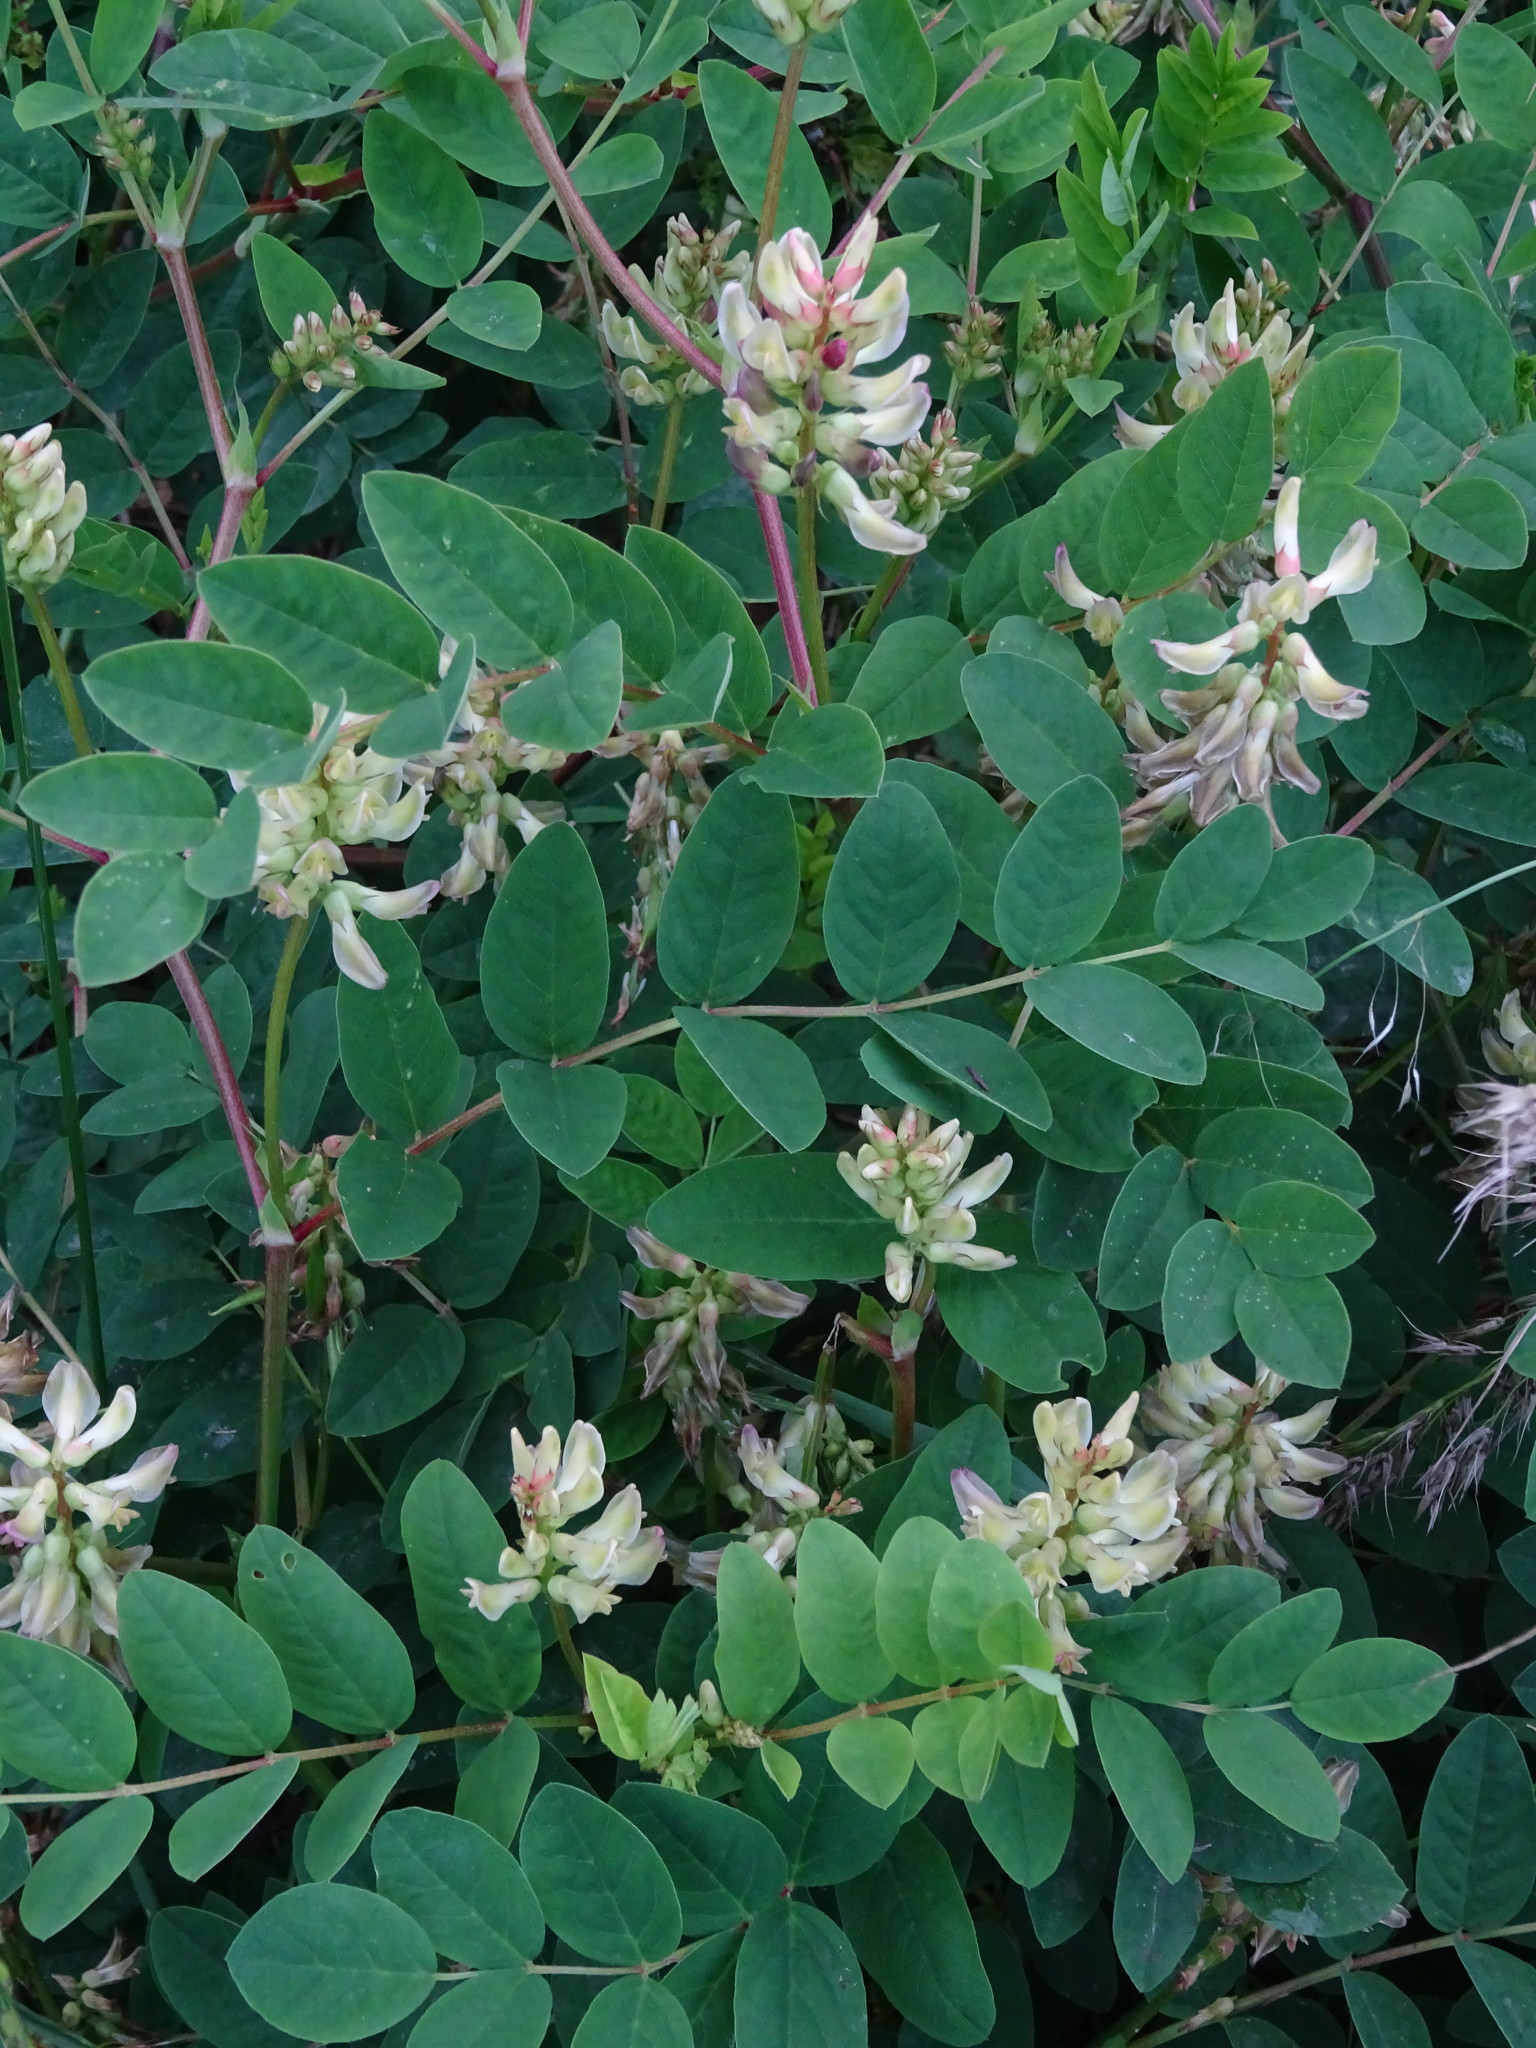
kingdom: Plantae
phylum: Tracheophyta
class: Magnoliopsida
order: Fabales
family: Fabaceae
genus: Astragalus
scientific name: Astragalus glycyphyllos
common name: Wild liquorice
